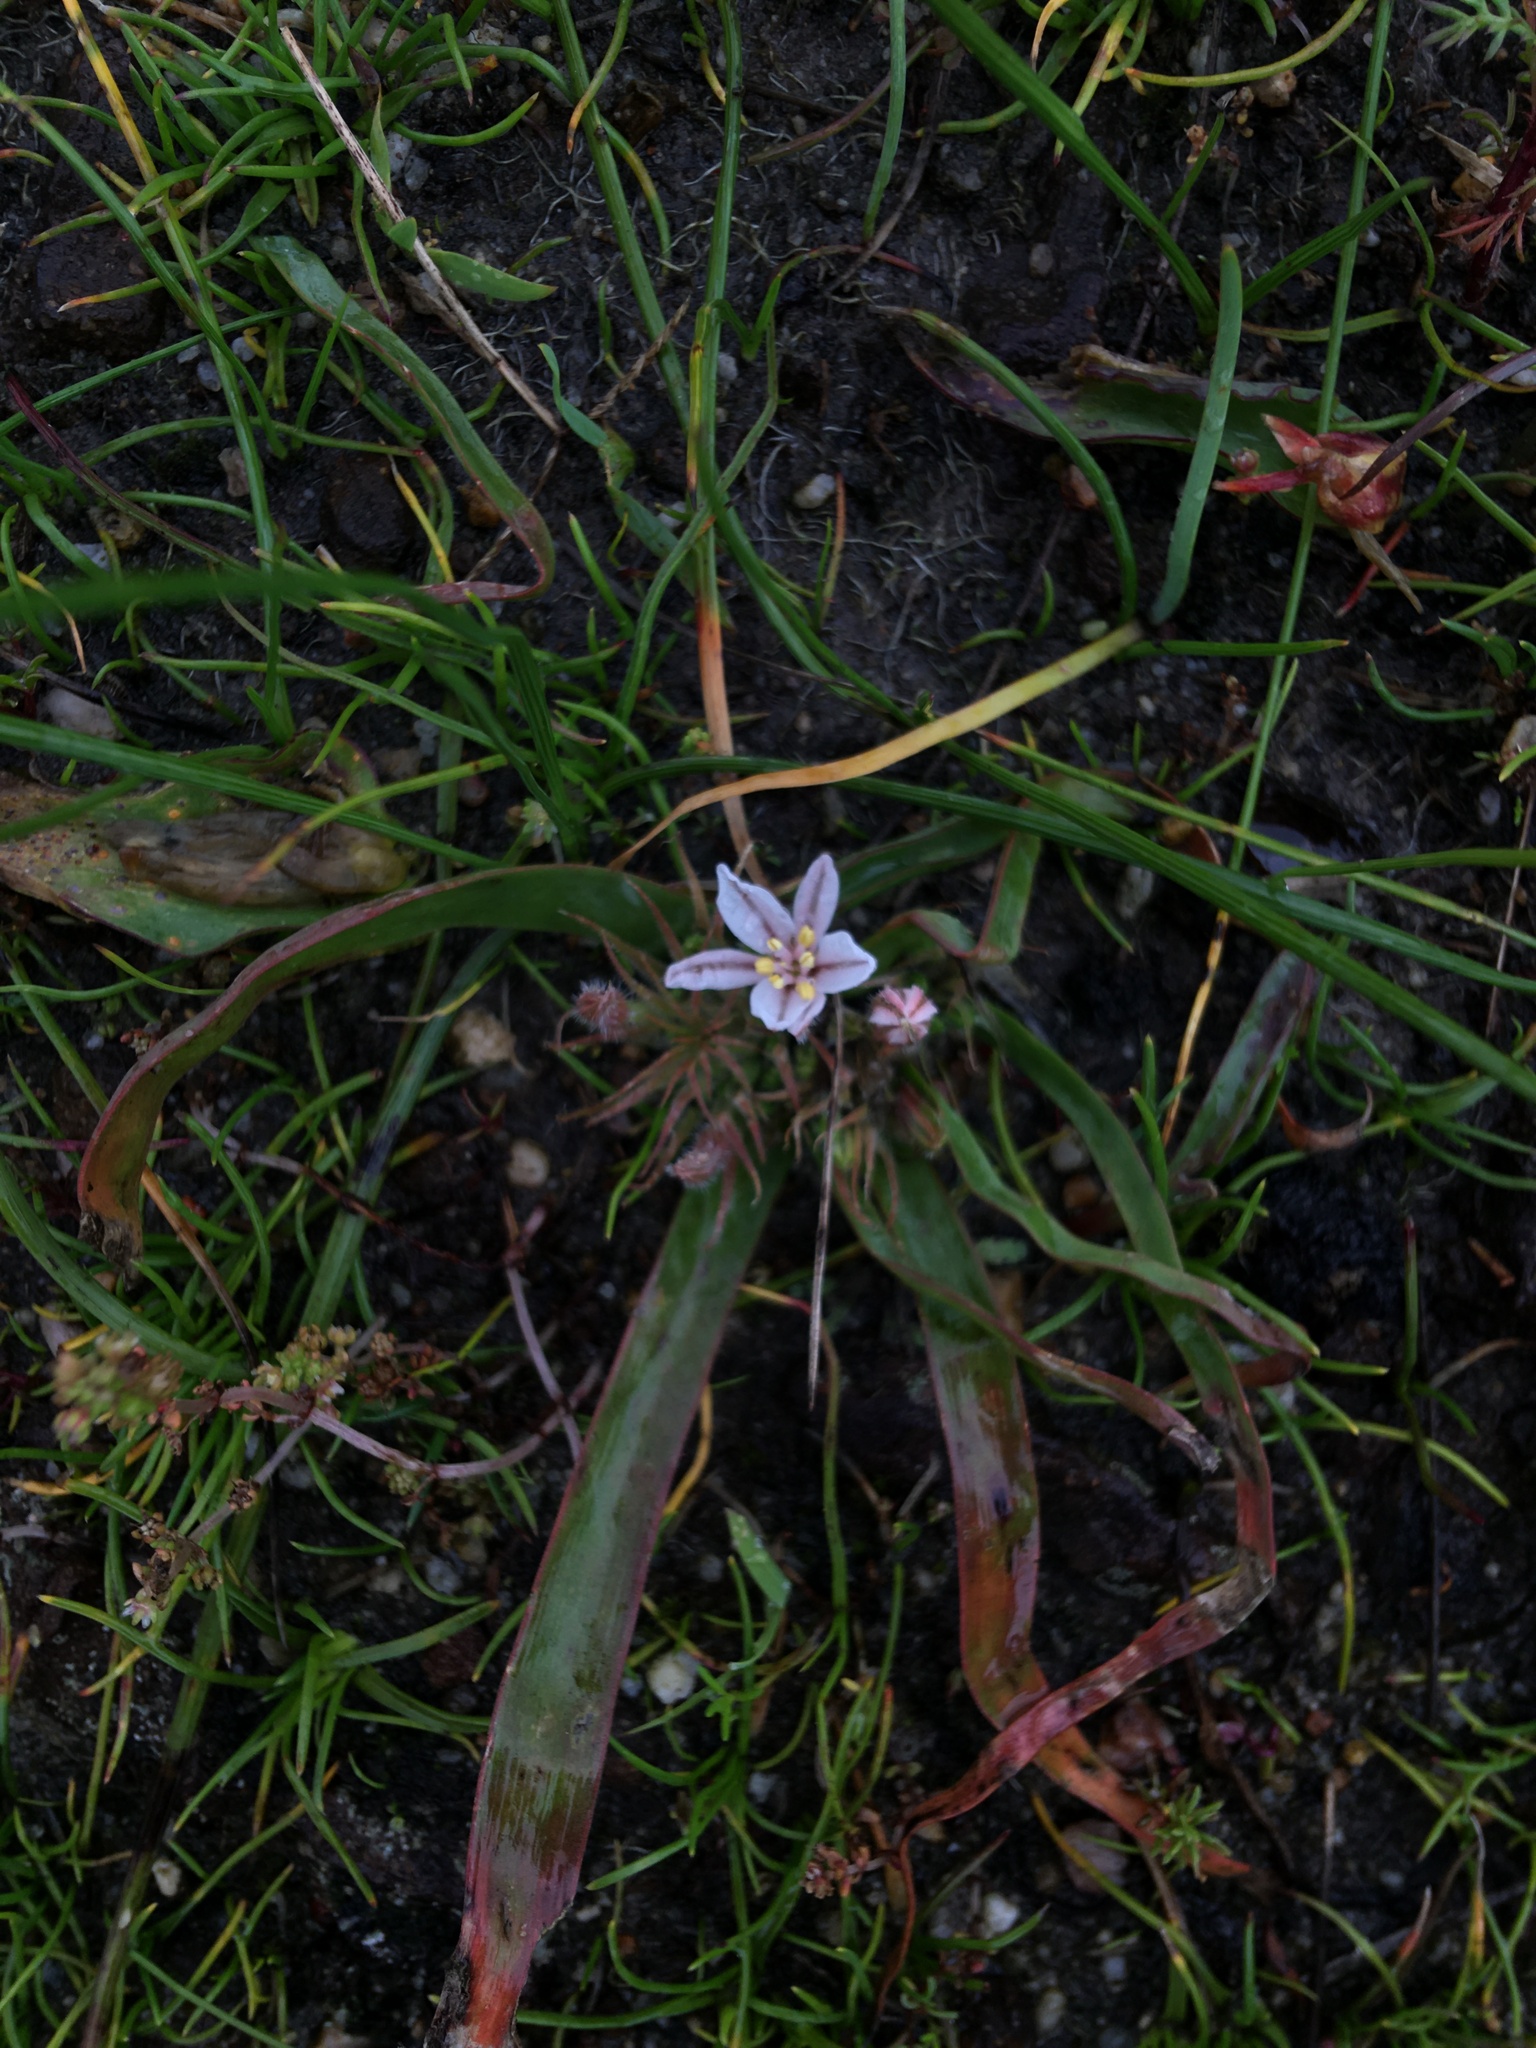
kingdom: Plantae
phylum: Tracheophyta
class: Liliopsida
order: Asparagales
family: Asphodelaceae
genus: Trachyandra
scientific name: Trachyandra hispida
